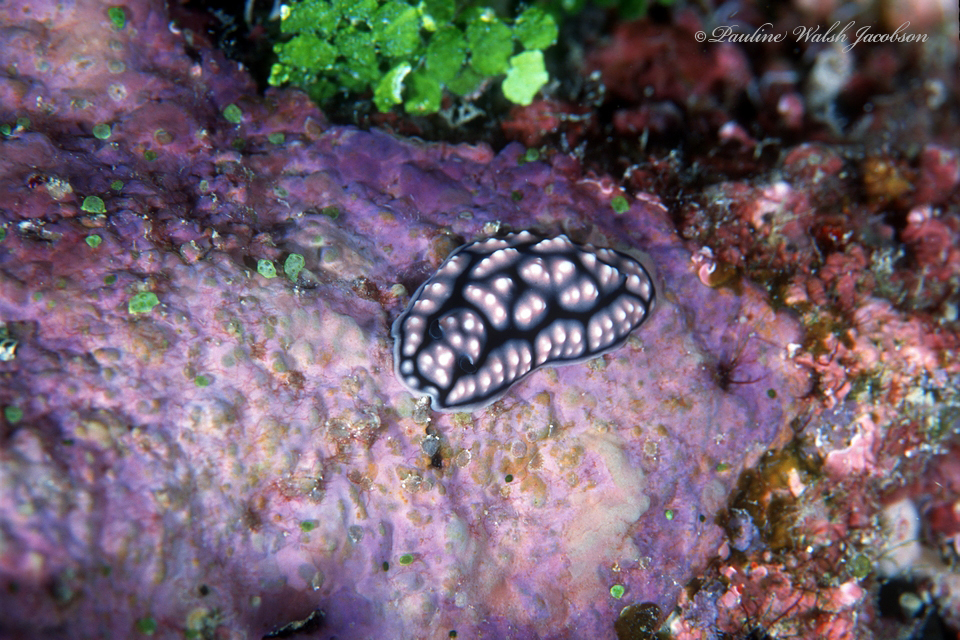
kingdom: Animalia
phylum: Mollusca
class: Gastropoda
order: Nudibranchia
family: Phyllidiidae
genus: Phyllidiella
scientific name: Phyllidiella pustulosa
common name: Pustular phyllidia
